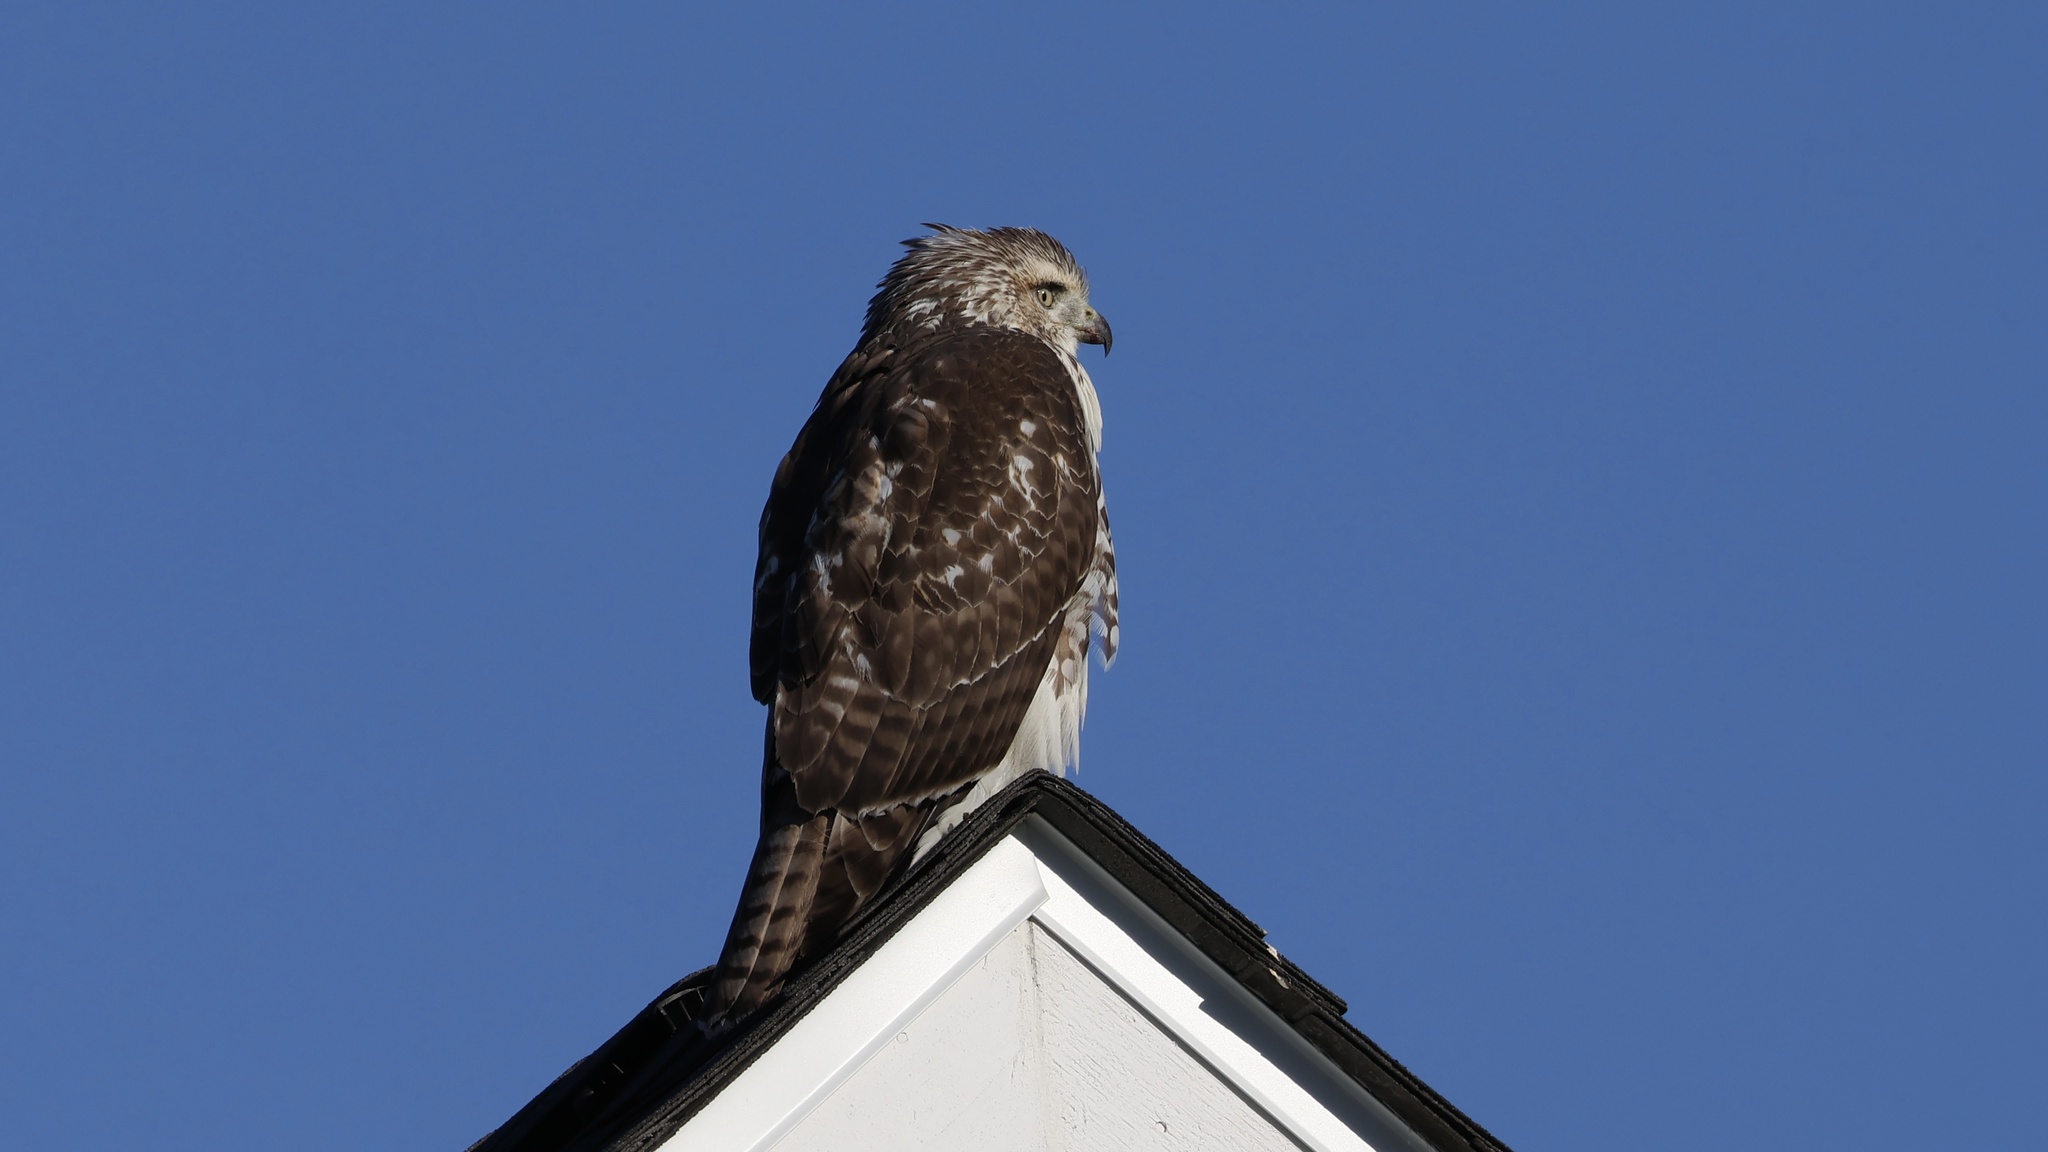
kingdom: Animalia
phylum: Chordata
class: Aves
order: Accipitriformes
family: Accipitridae
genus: Buteo
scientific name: Buteo jamaicensis
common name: Red-tailed hawk
